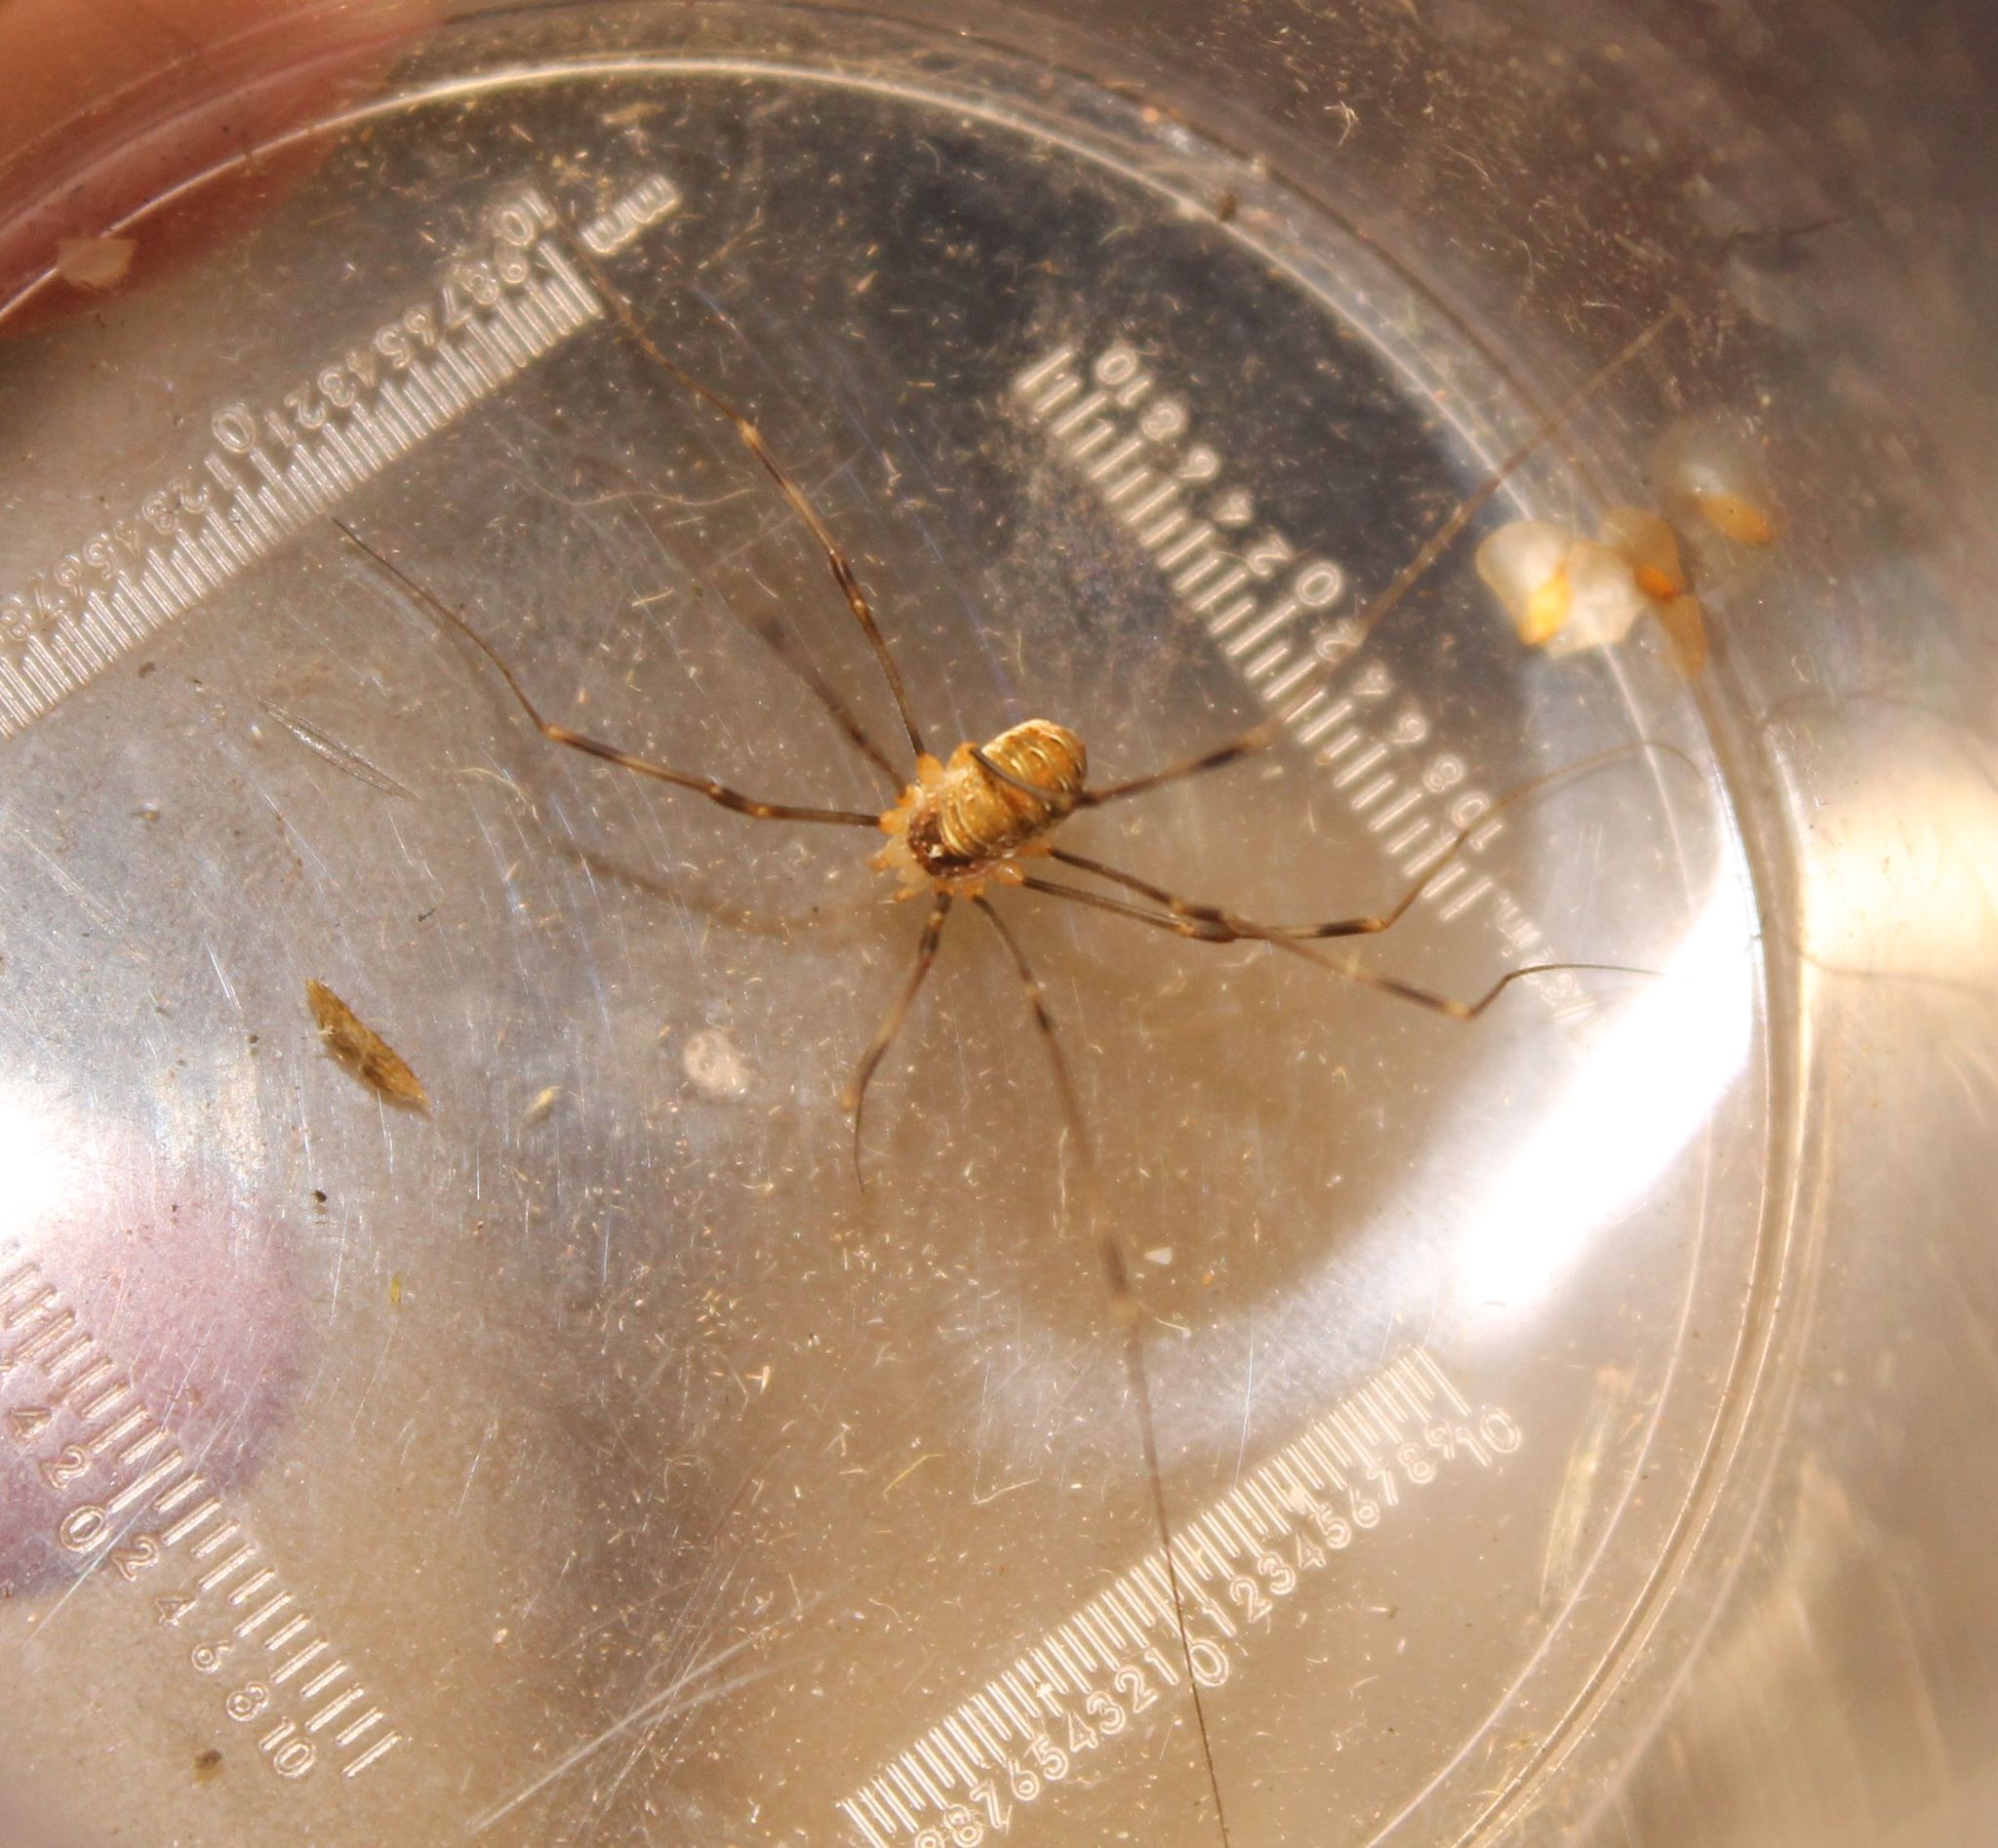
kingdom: Animalia
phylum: Arthropoda
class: Arachnida
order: Opiliones
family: Phalangiidae
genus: Opilio
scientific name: Opilio canestrinii
